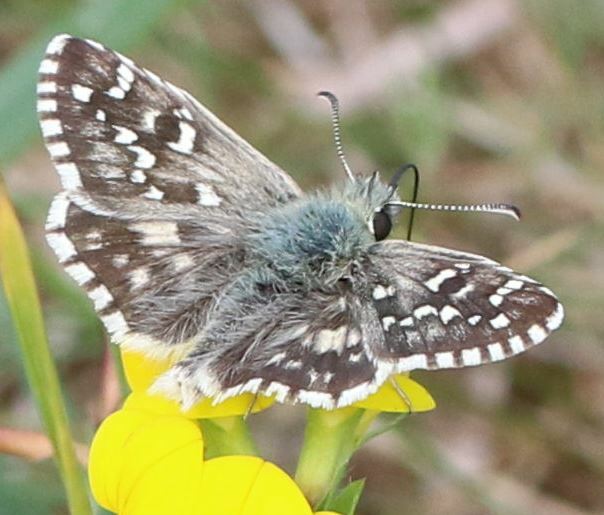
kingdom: Animalia
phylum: Arthropoda
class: Insecta
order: Lepidoptera
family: Hesperiidae
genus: Pyrgus
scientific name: Pyrgus armoricanus
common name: Oberthür's grizzled skipper
